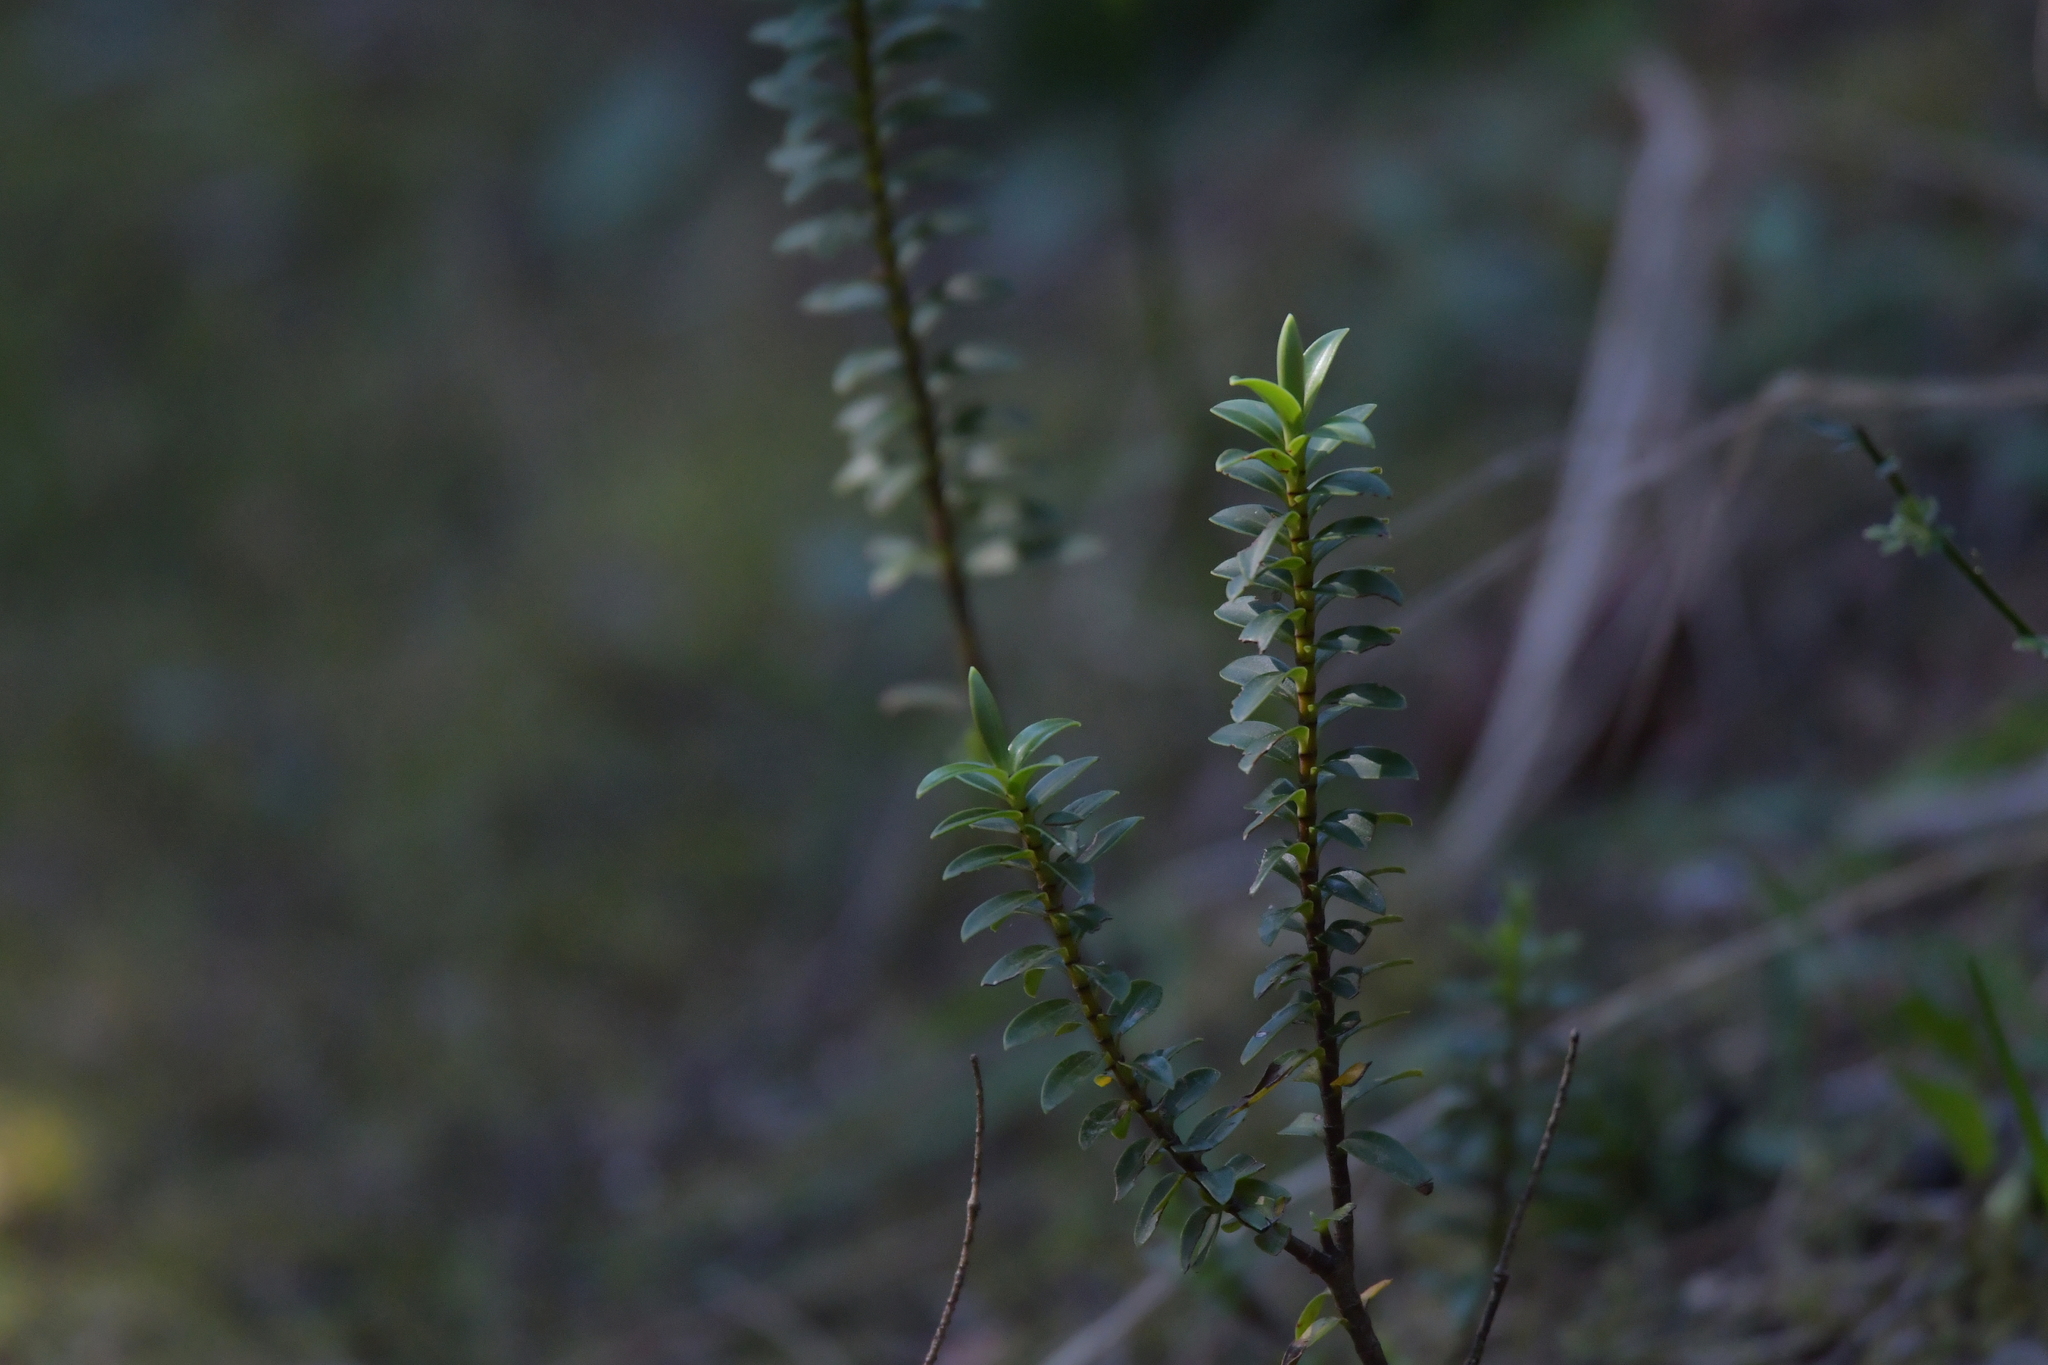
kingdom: Plantae
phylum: Tracheophyta
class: Magnoliopsida
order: Lamiales
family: Plantaginaceae
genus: Veronica
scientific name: Veronica odora
